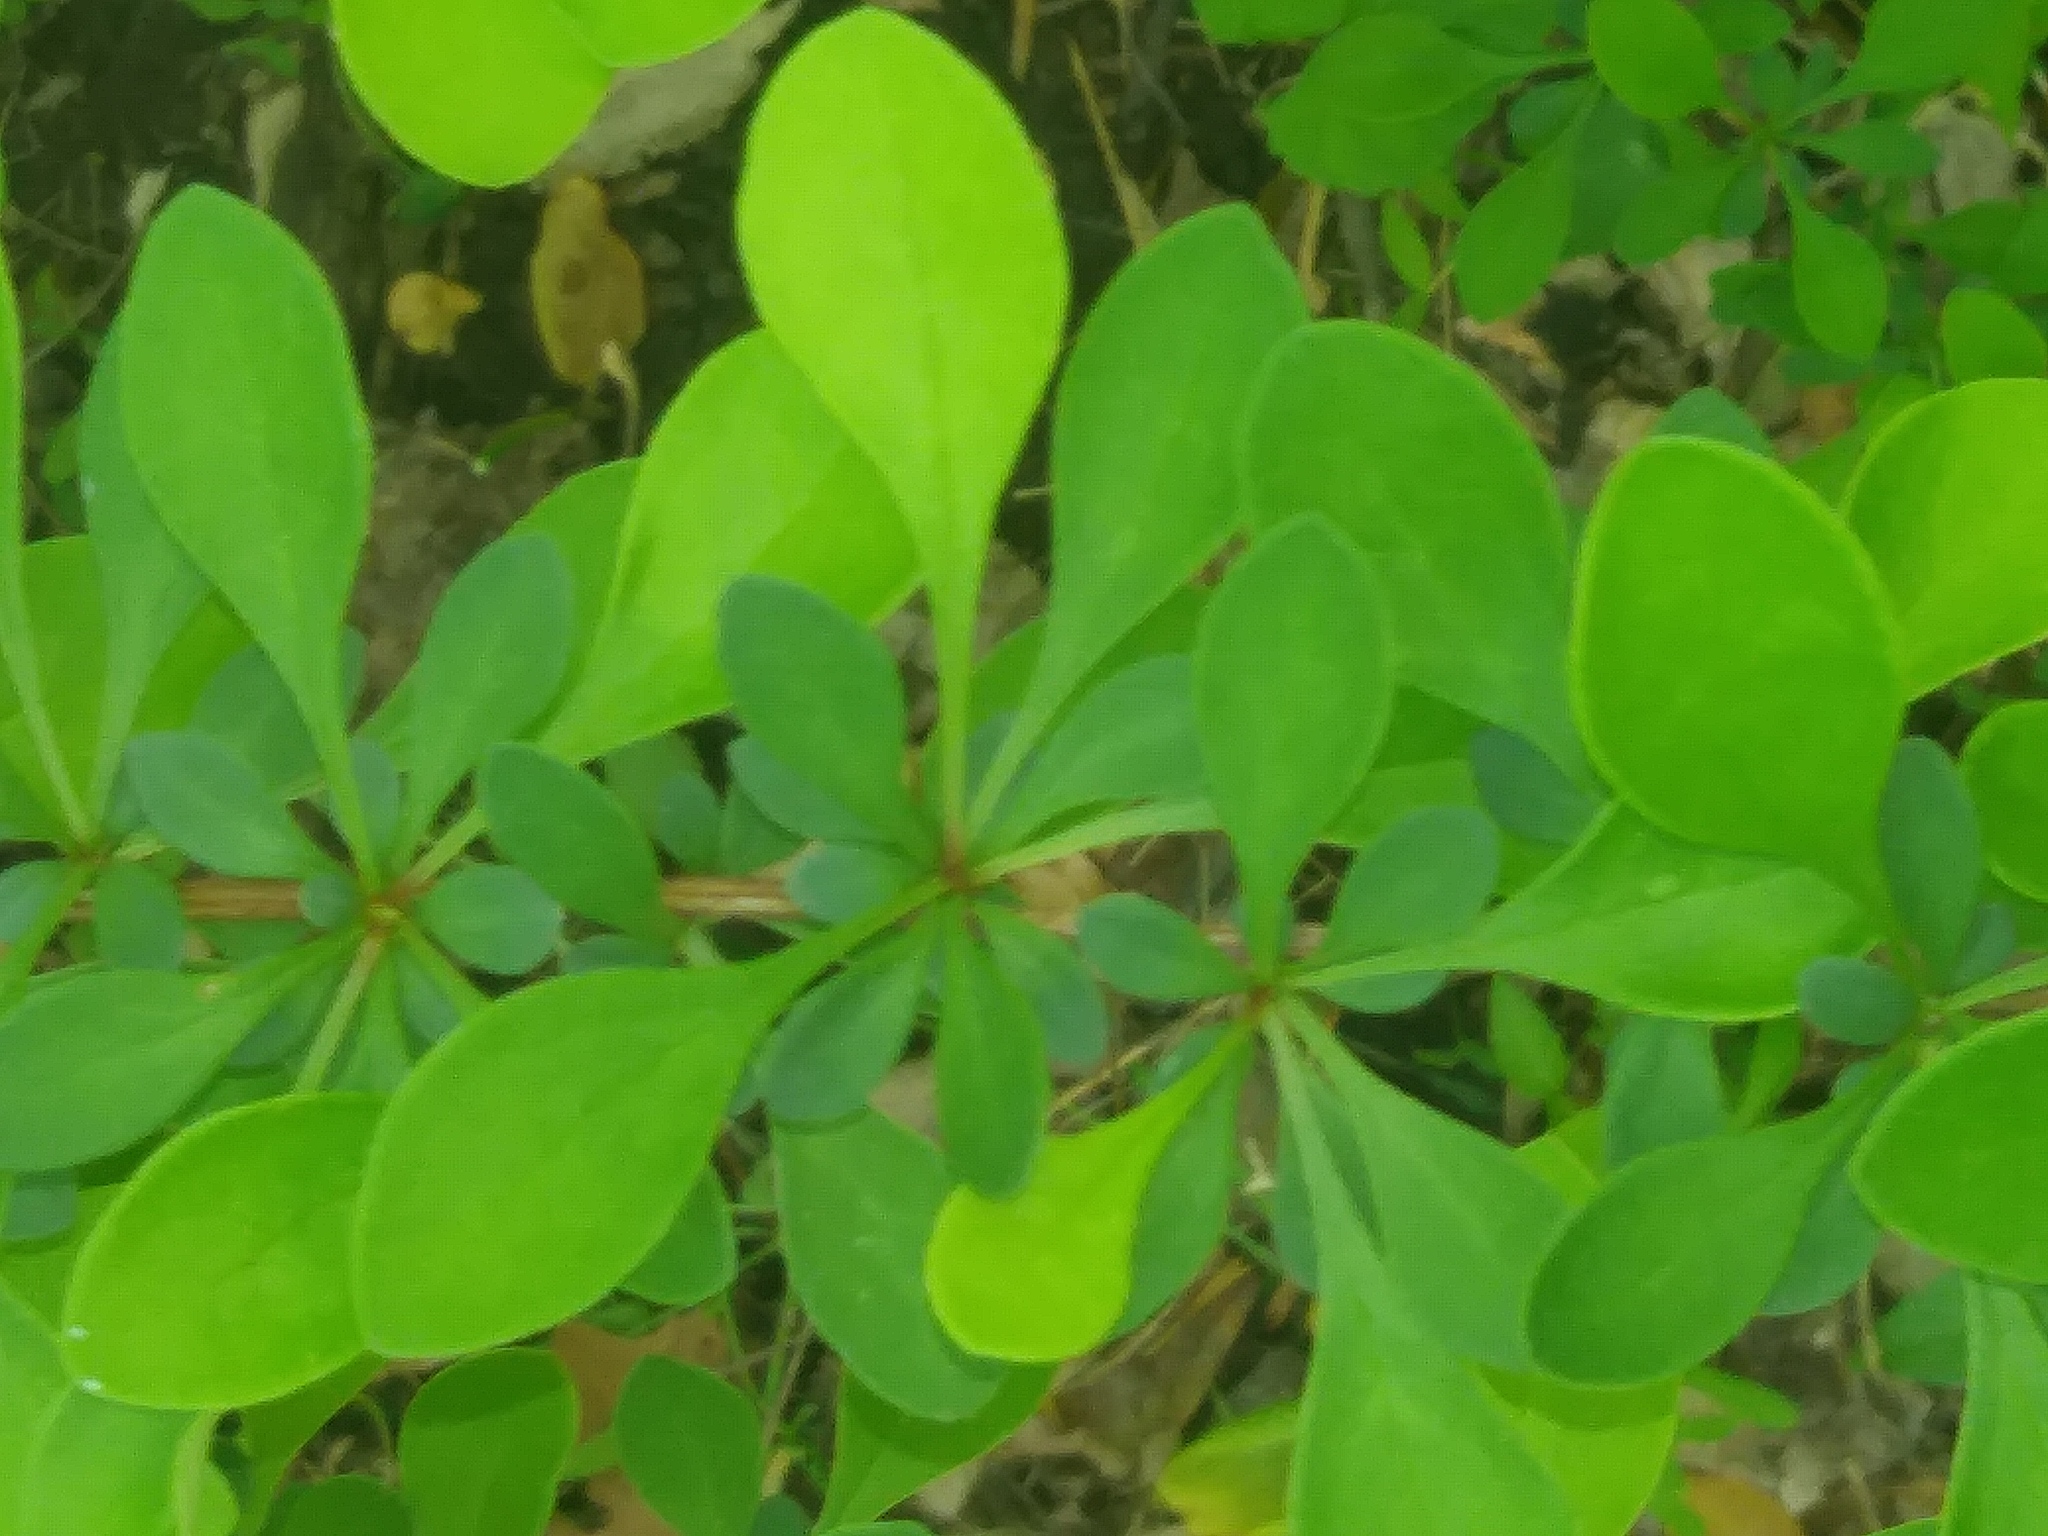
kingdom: Plantae
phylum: Tracheophyta
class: Magnoliopsida
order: Ranunculales
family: Berberidaceae
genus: Berberis
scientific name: Berberis thunbergii
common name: Japanese barberry
